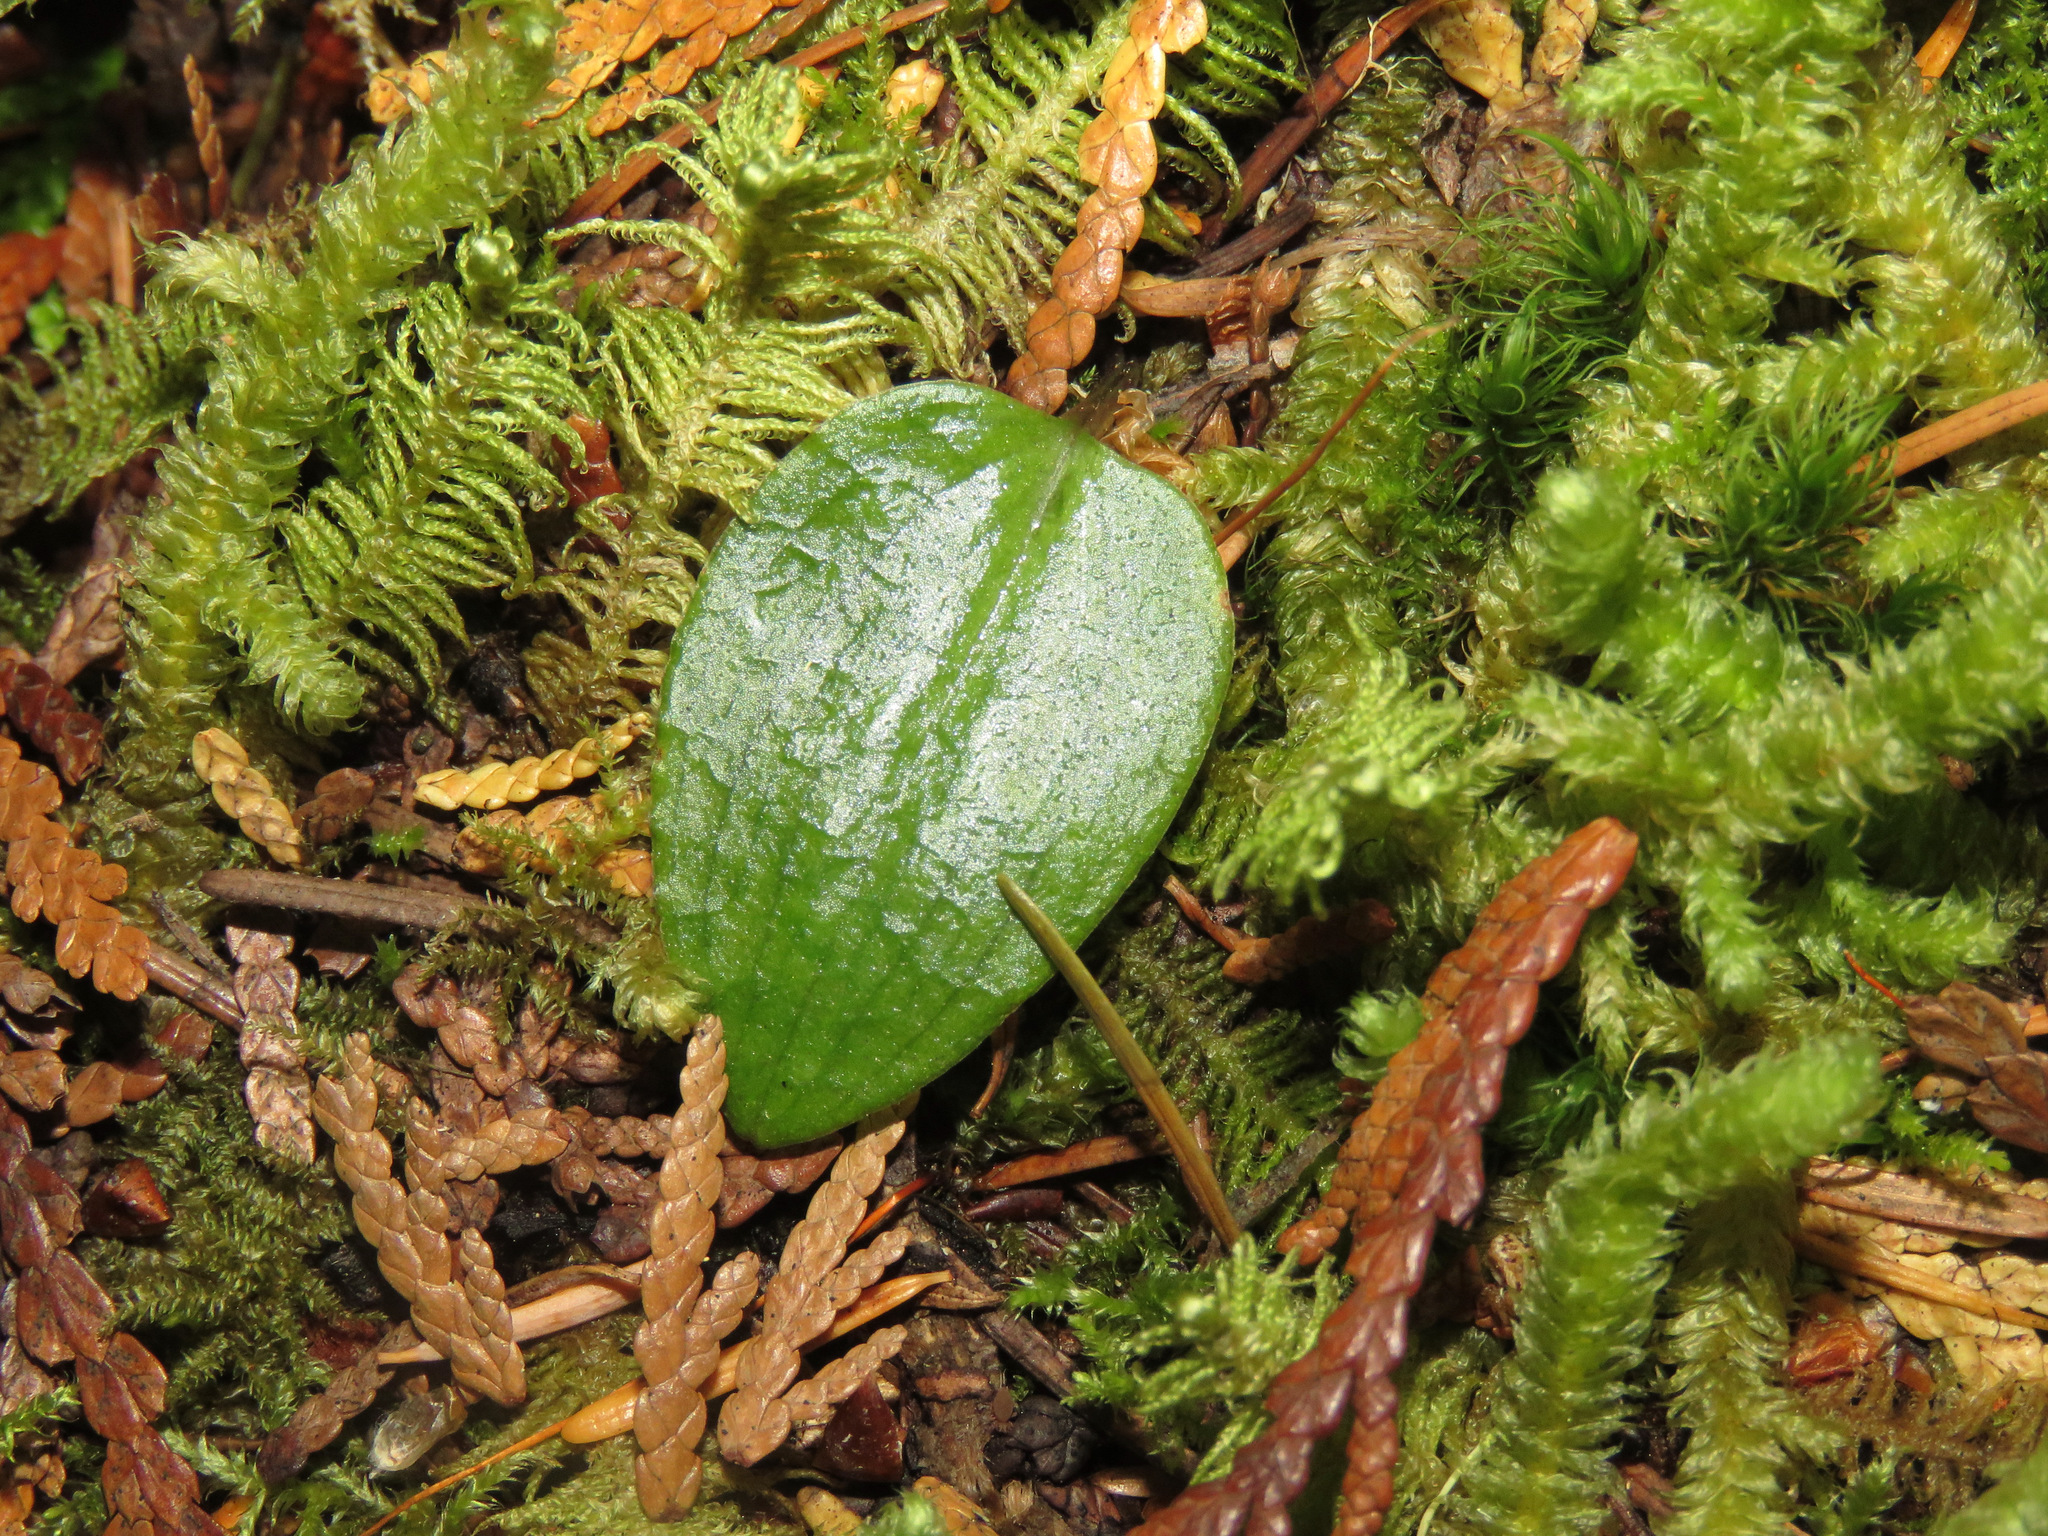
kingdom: Plantae
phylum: Tracheophyta
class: Liliopsida
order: Asparagales
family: Orchidaceae
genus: Calypso
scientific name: Calypso bulbosa
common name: Calypso
